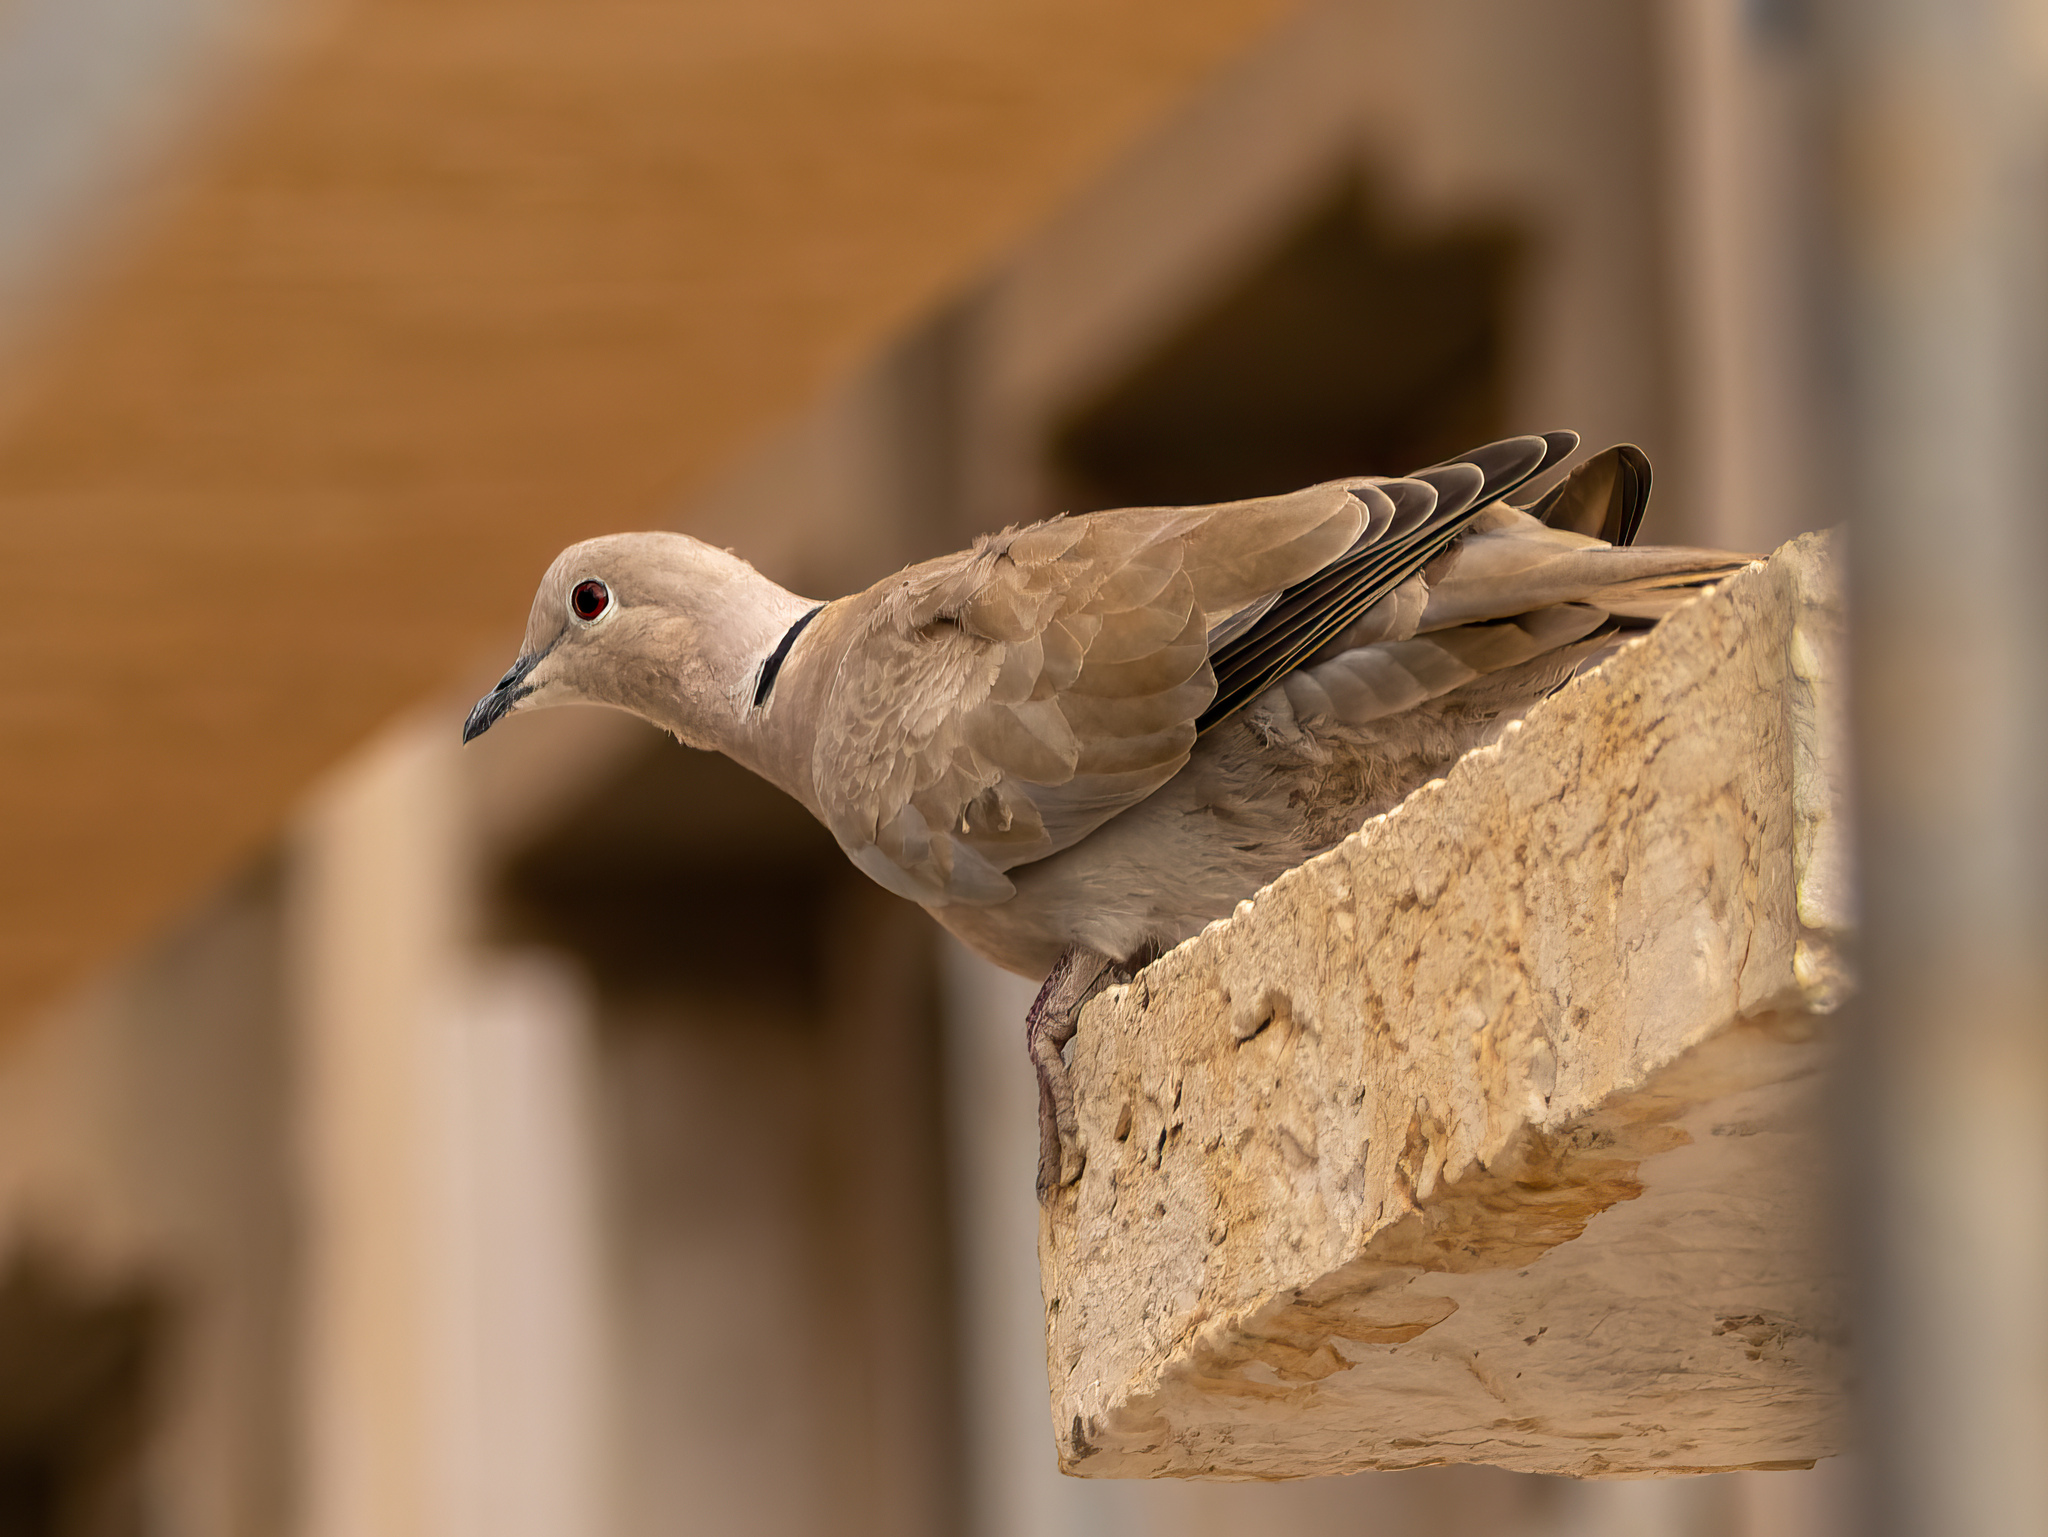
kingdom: Animalia
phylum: Chordata
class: Aves
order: Columbiformes
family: Columbidae
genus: Streptopelia
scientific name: Streptopelia decaocto
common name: Eurasian collared dove
